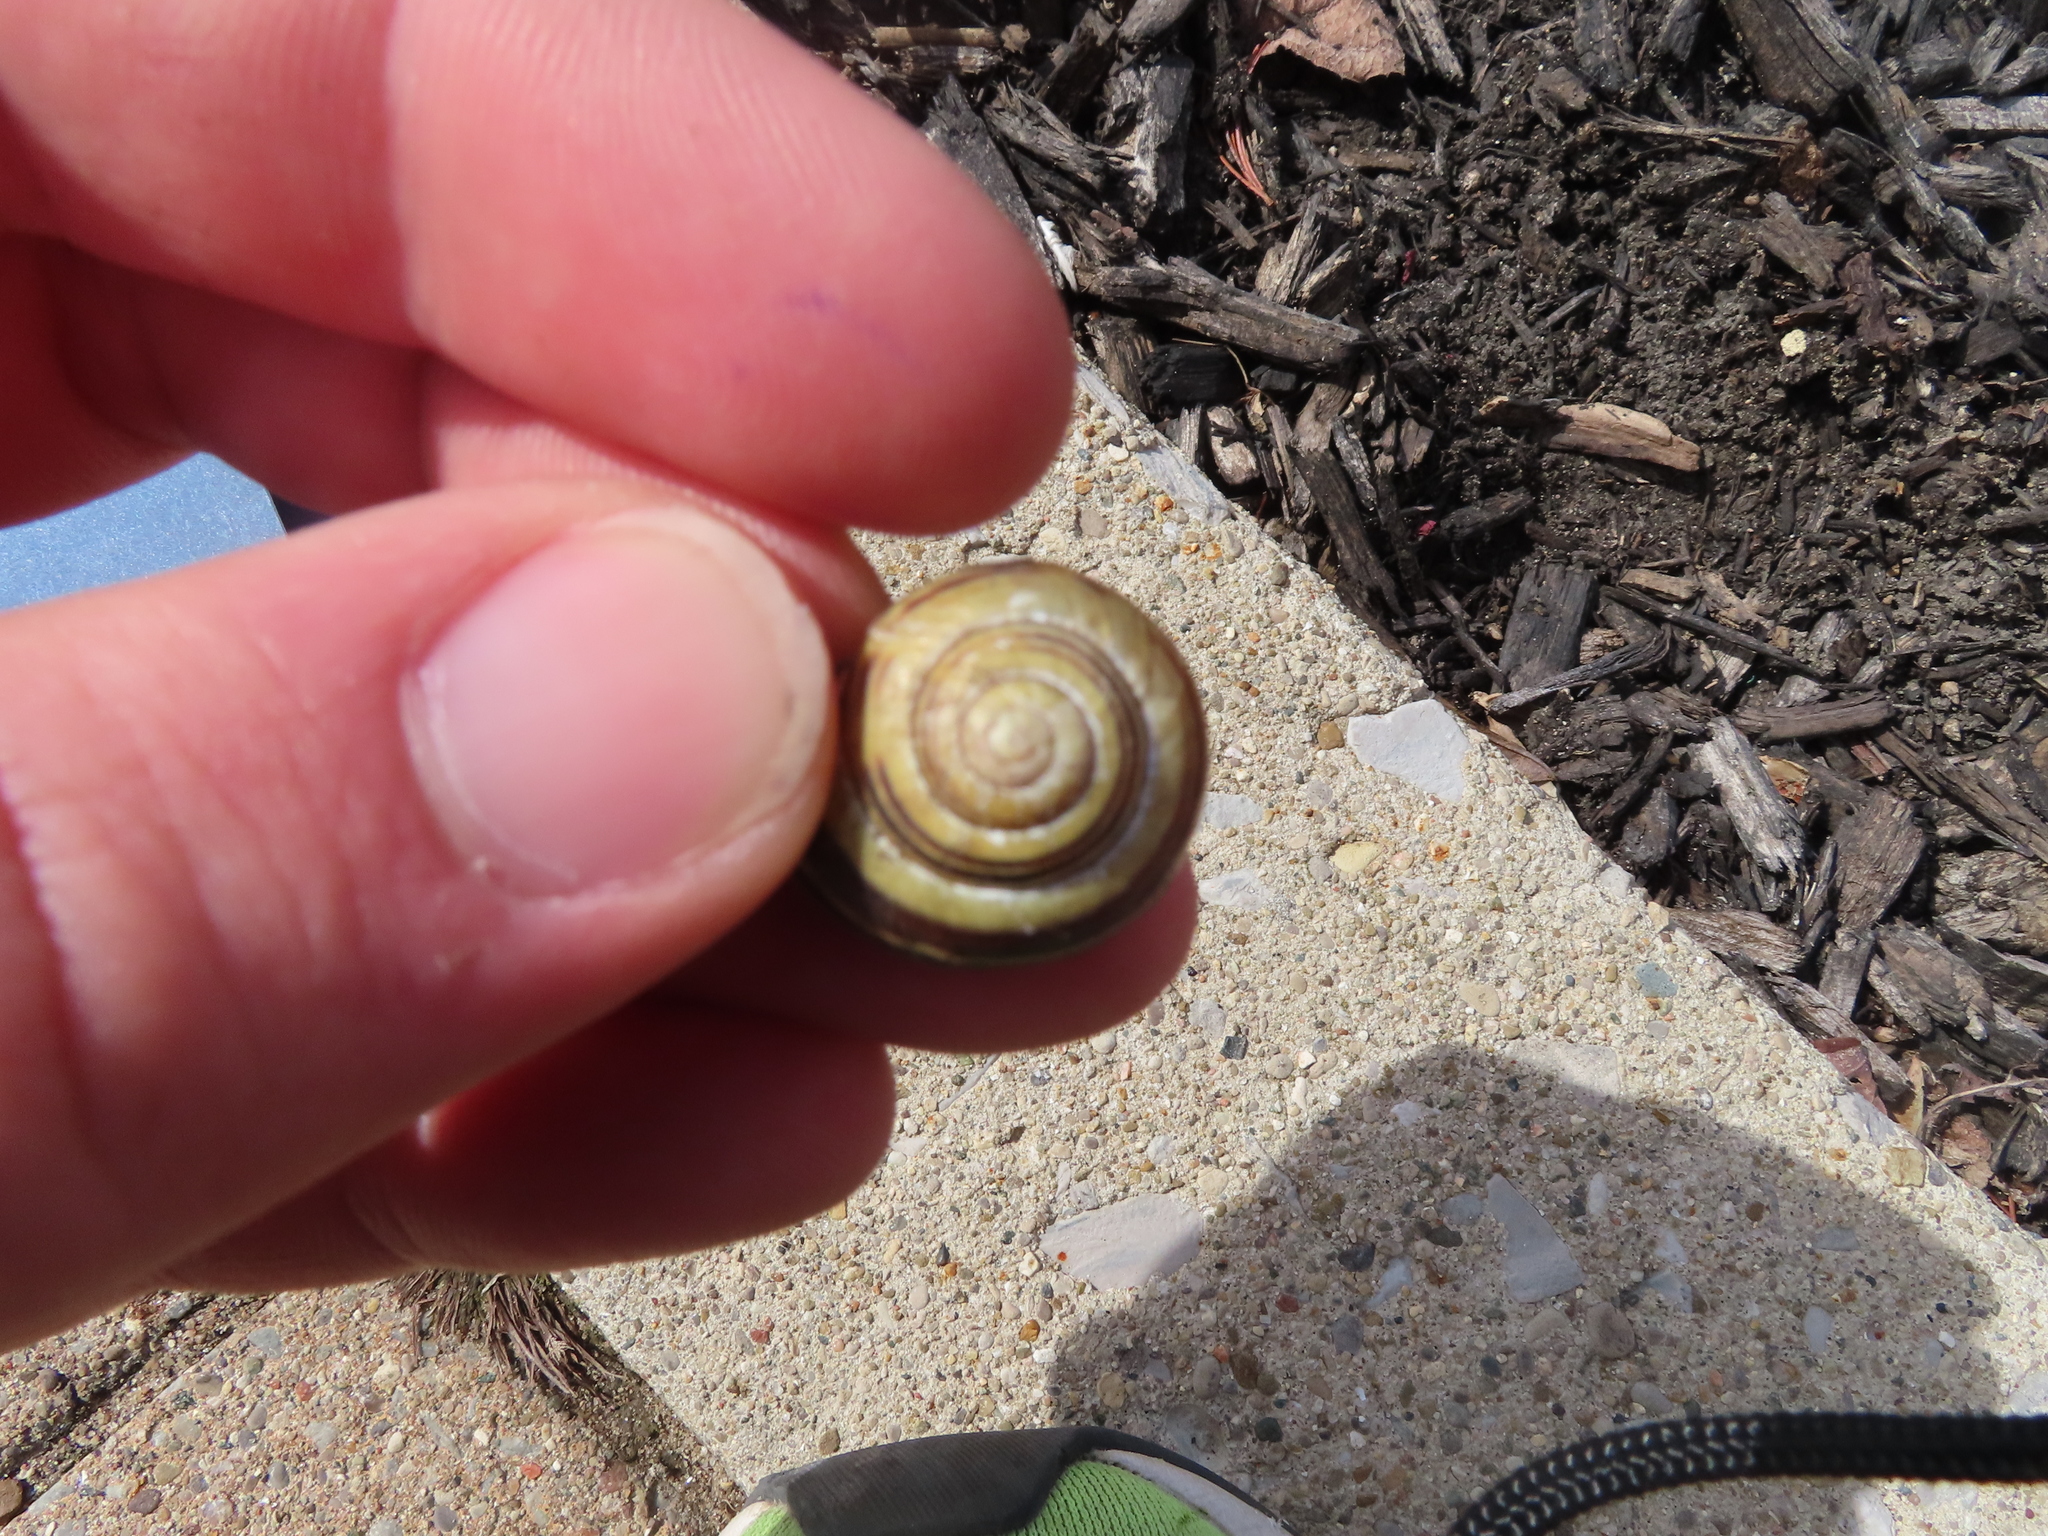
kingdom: Animalia
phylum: Mollusca
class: Gastropoda
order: Stylommatophora
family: Helicidae
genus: Cepaea
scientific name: Cepaea nemoralis
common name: Grovesnail
